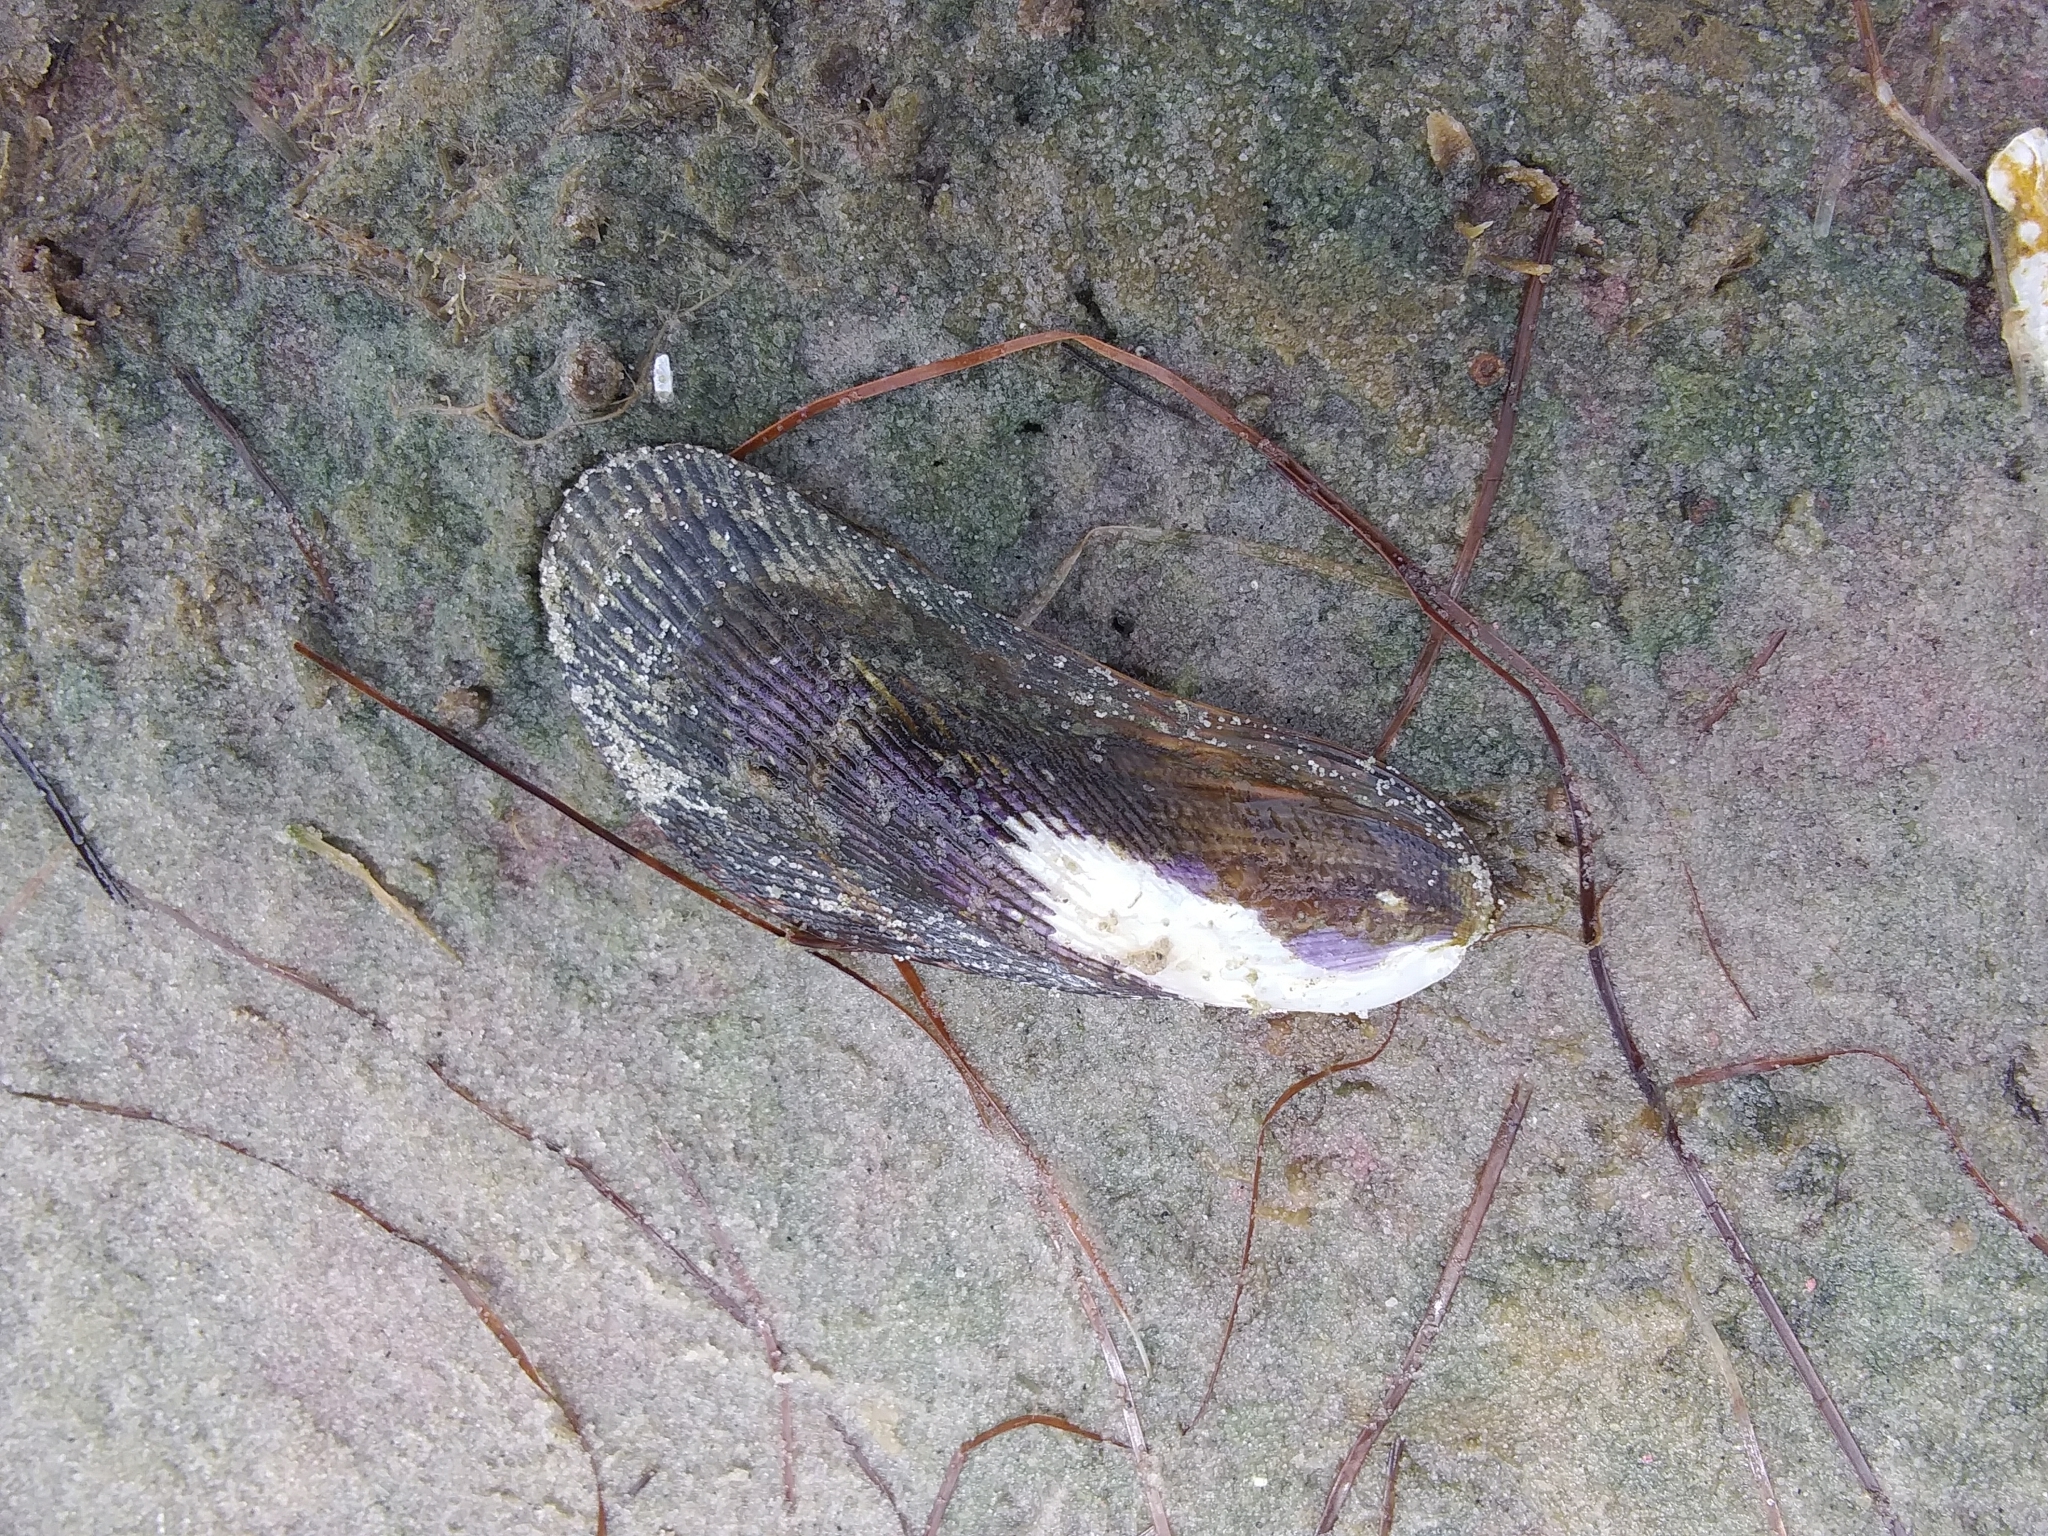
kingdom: Animalia
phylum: Mollusca
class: Bivalvia
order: Mytilida
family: Mytilidae
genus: Geukensia
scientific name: Geukensia demissa
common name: Ribbed mussel
